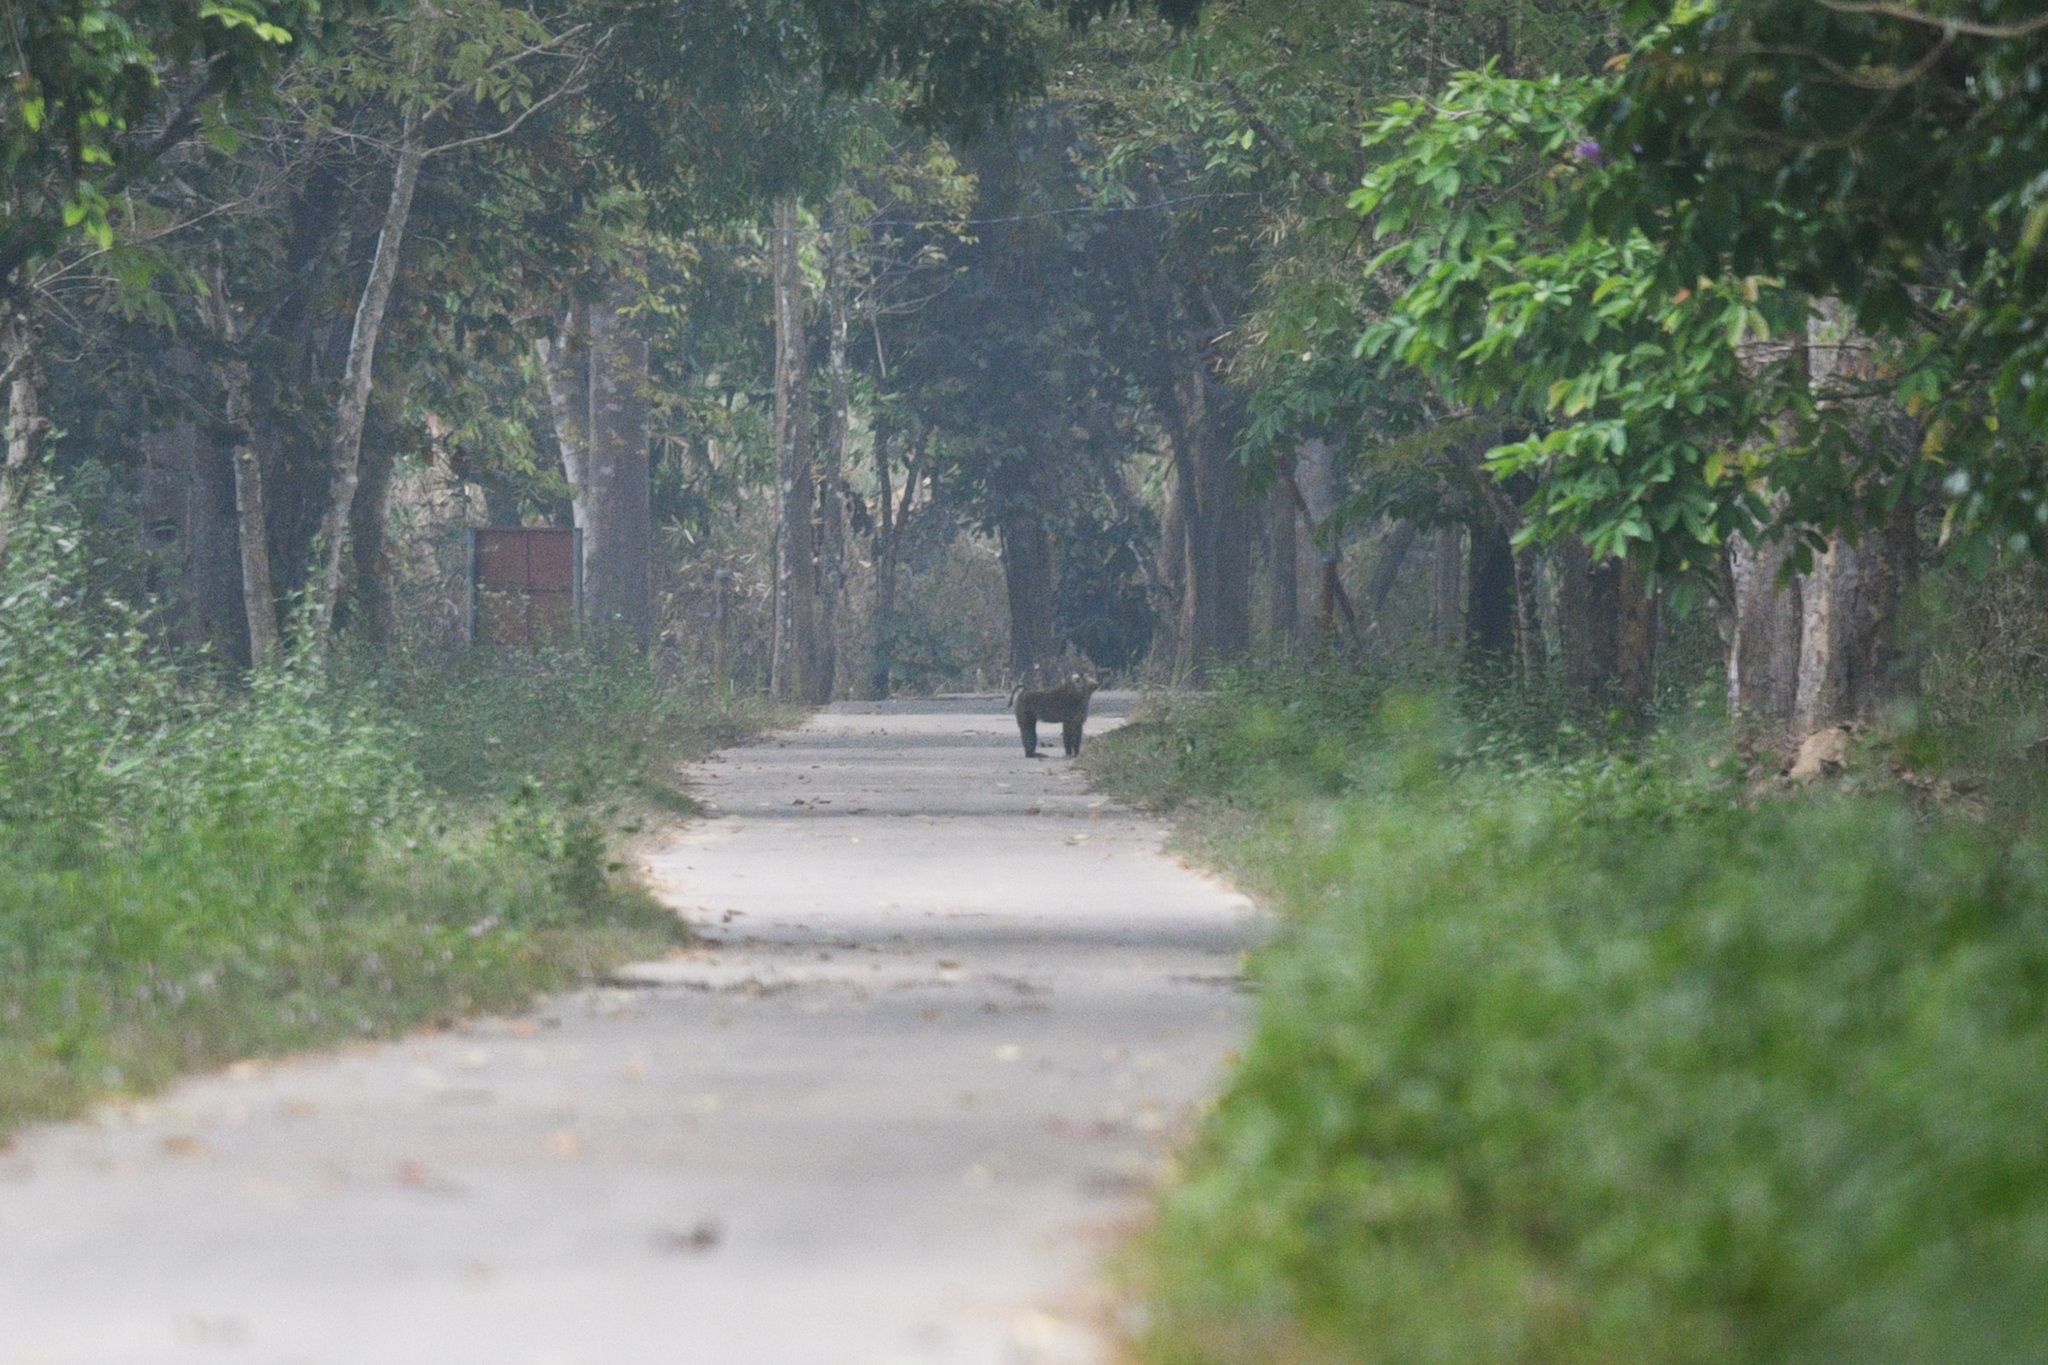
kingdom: Animalia
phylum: Chordata
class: Mammalia
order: Primates
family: Cercopithecidae
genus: Macaca
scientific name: Macaca leonina
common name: Northern pig-tailed macaque
